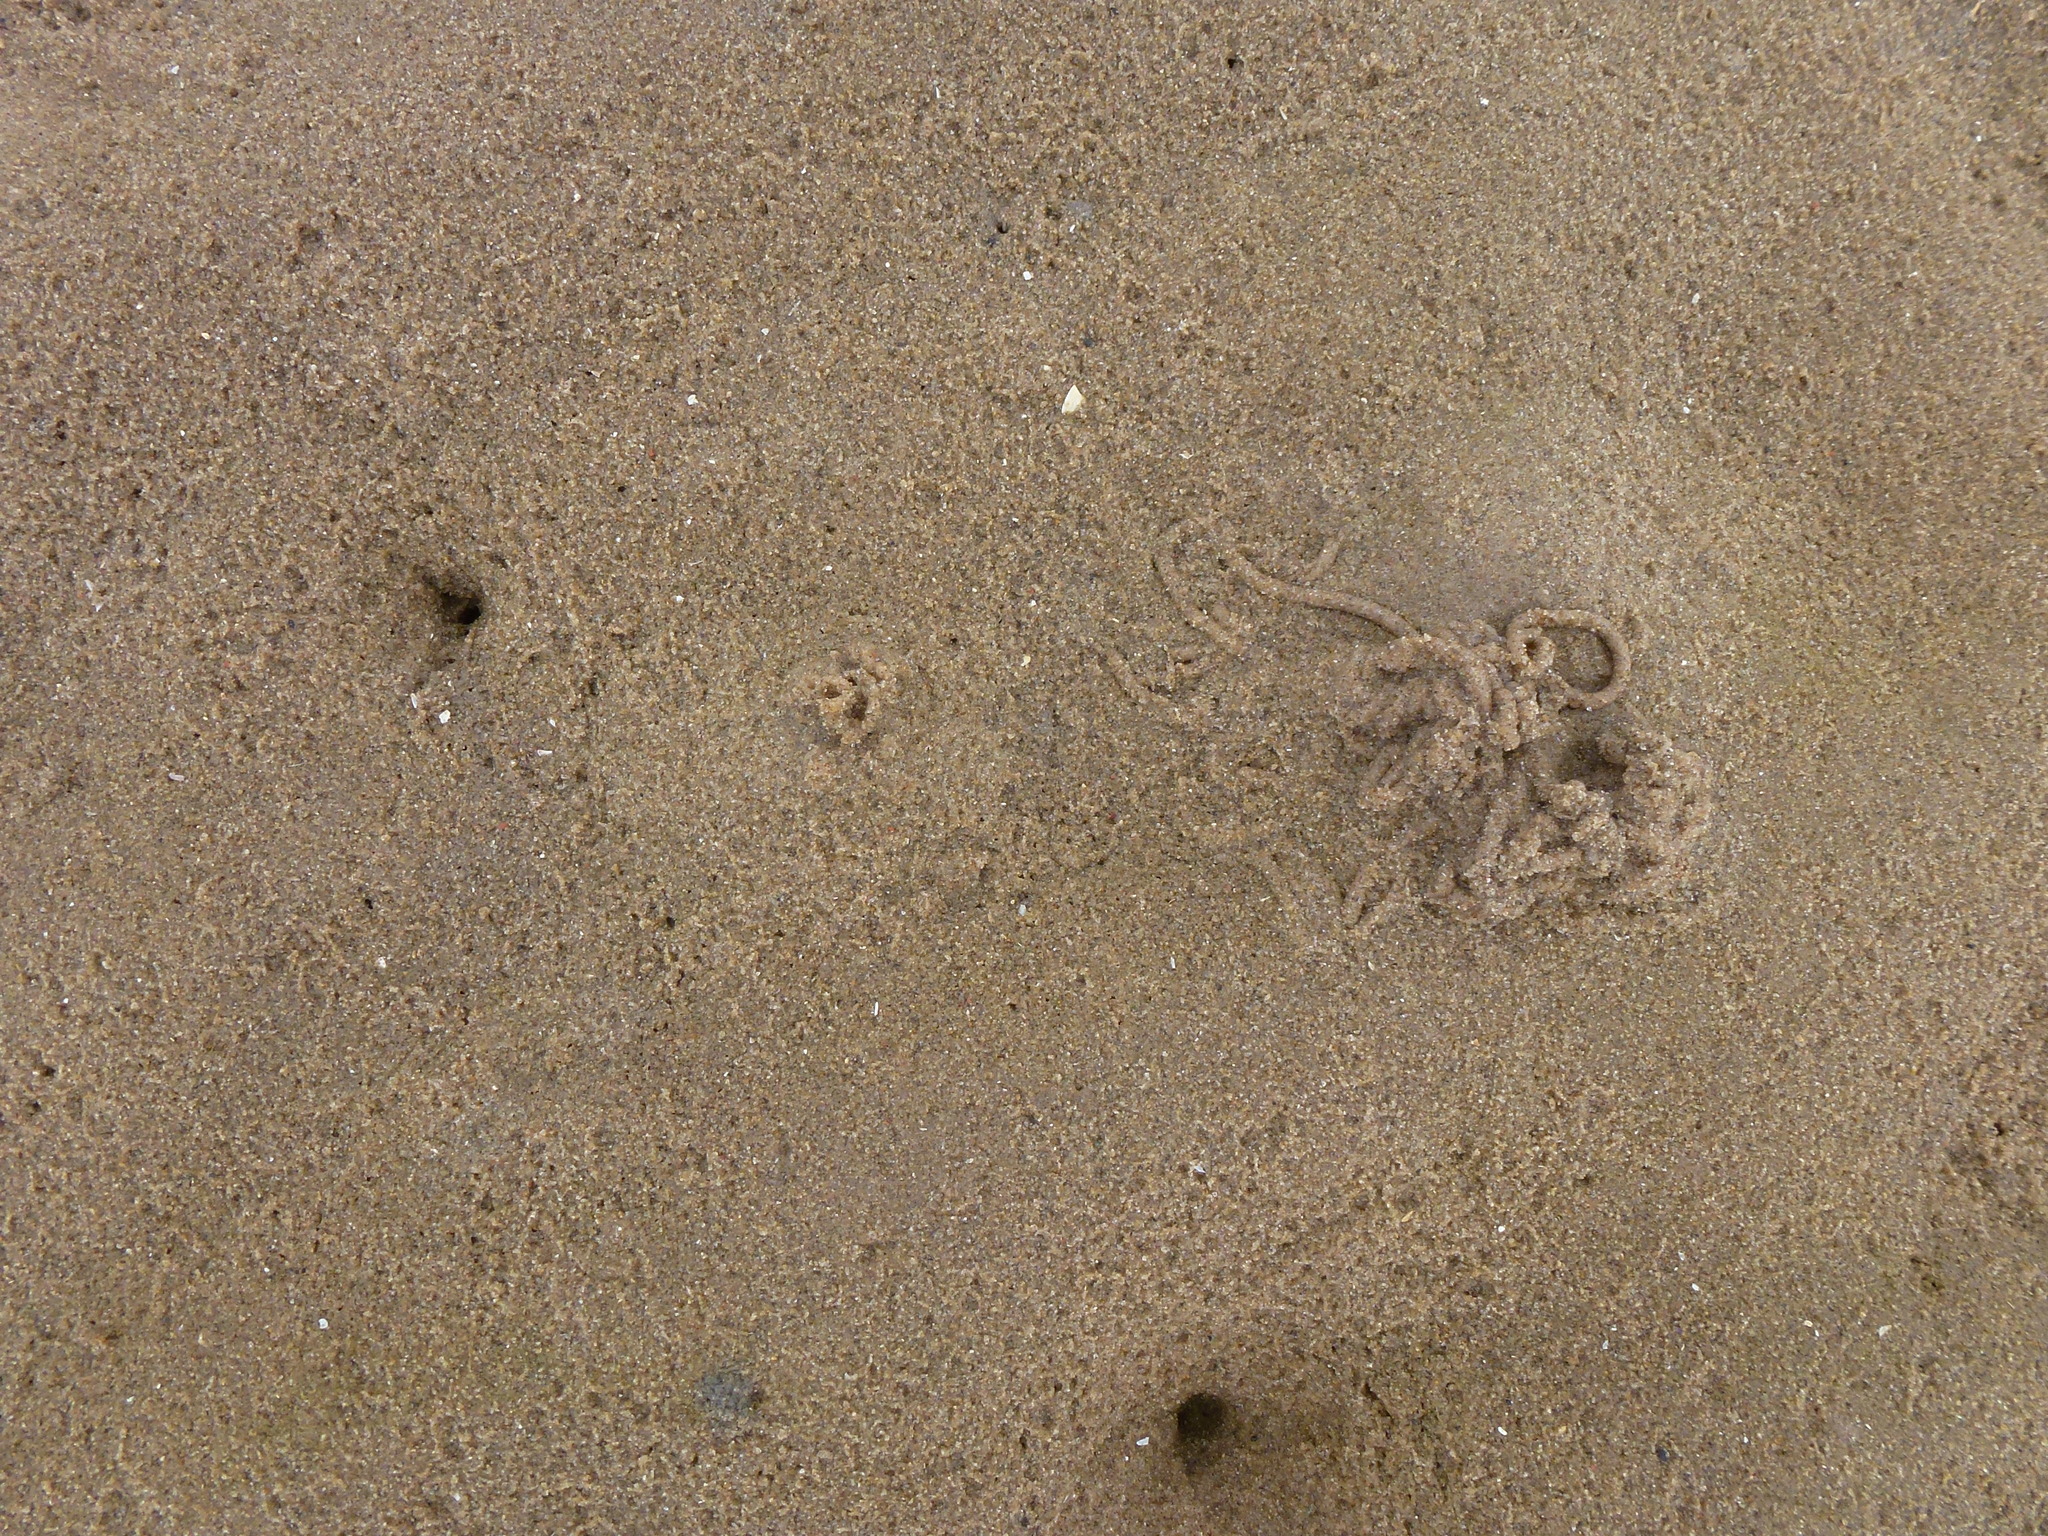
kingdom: Animalia
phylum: Annelida
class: Polychaeta
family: Arenicolidae
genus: Arenicola
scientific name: Arenicola marina
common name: Blow lugworm
